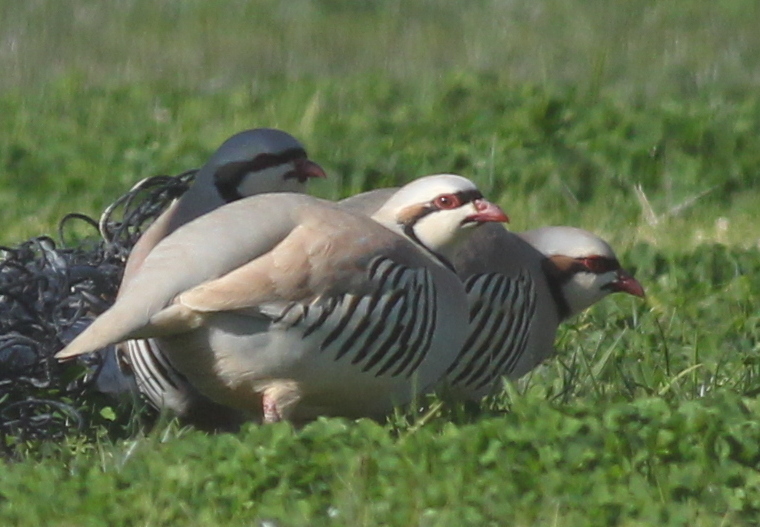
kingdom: Animalia
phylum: Chordata
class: Aves
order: Galliformes
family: Phasianidae
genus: Alectoris
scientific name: Alectoris chukar
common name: Chukar
